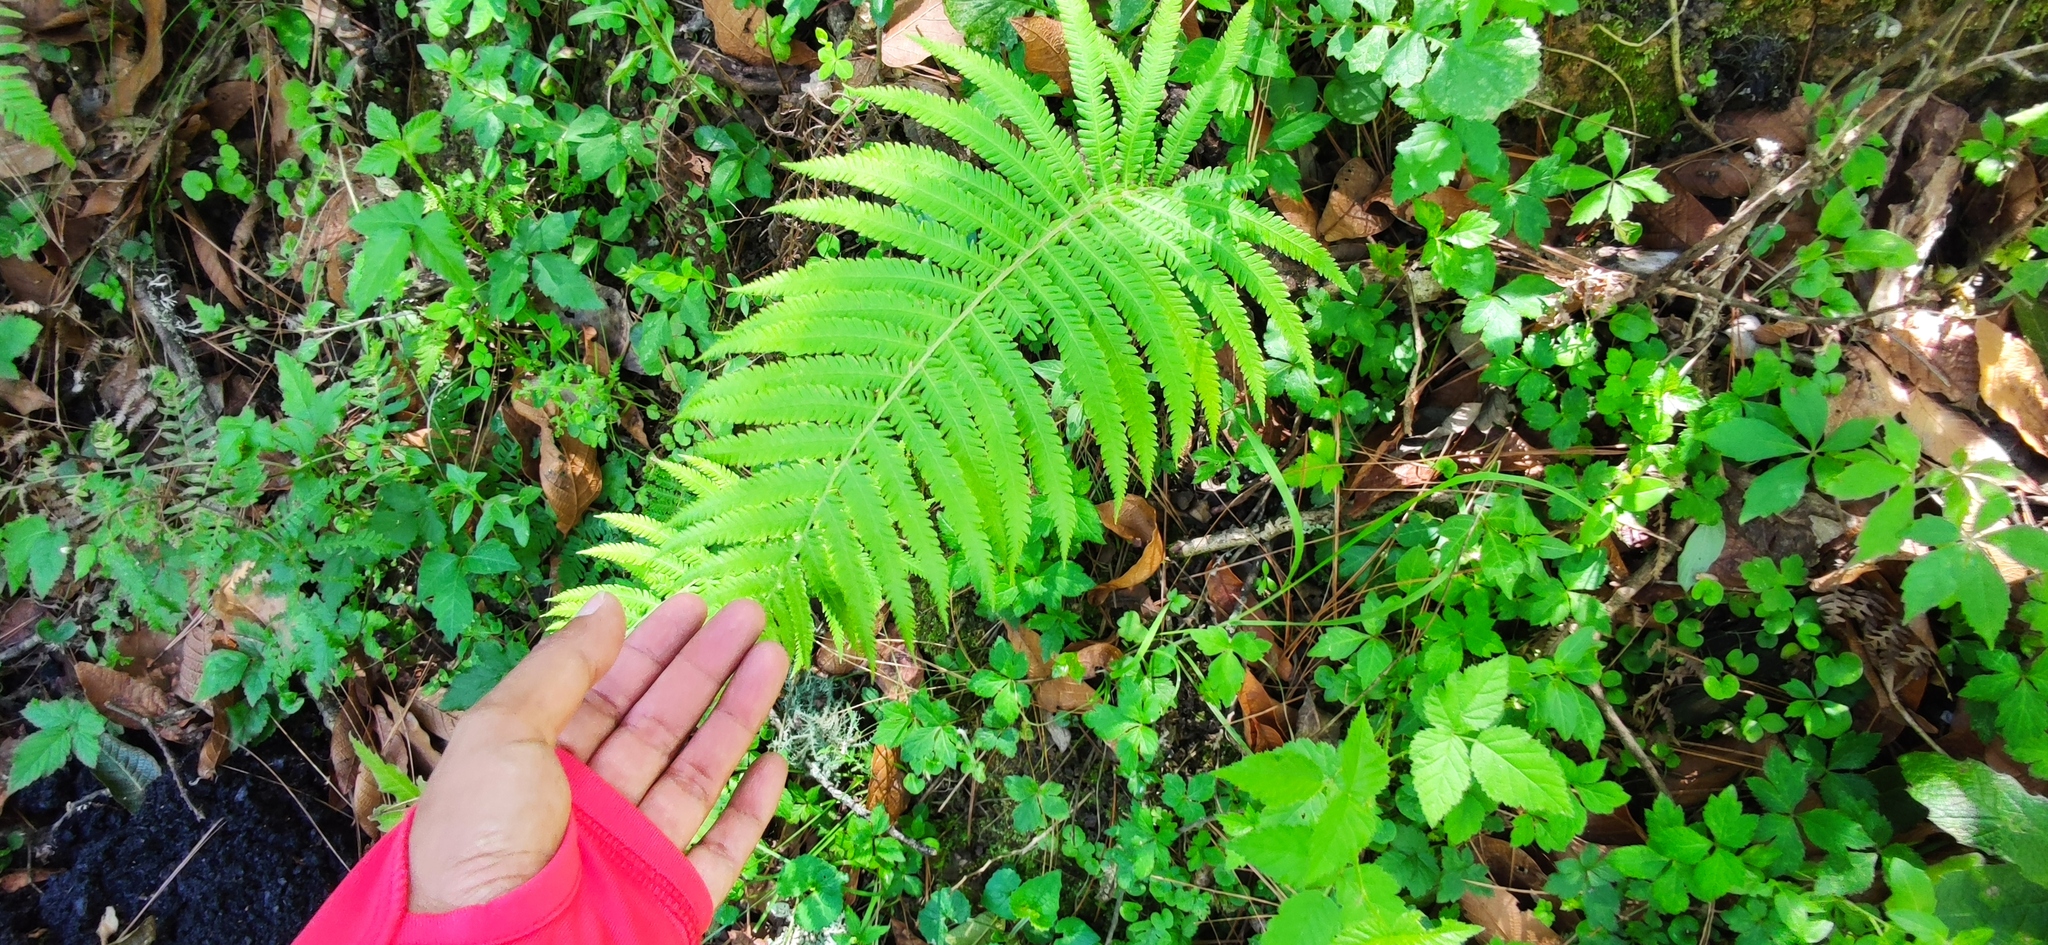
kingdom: Plantae
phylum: Tracheophyta
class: Polypodiopsida
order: Polypodiales
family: Thelypteridaceae
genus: Pelazoneuron
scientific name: Pelazoneuron puberulum
